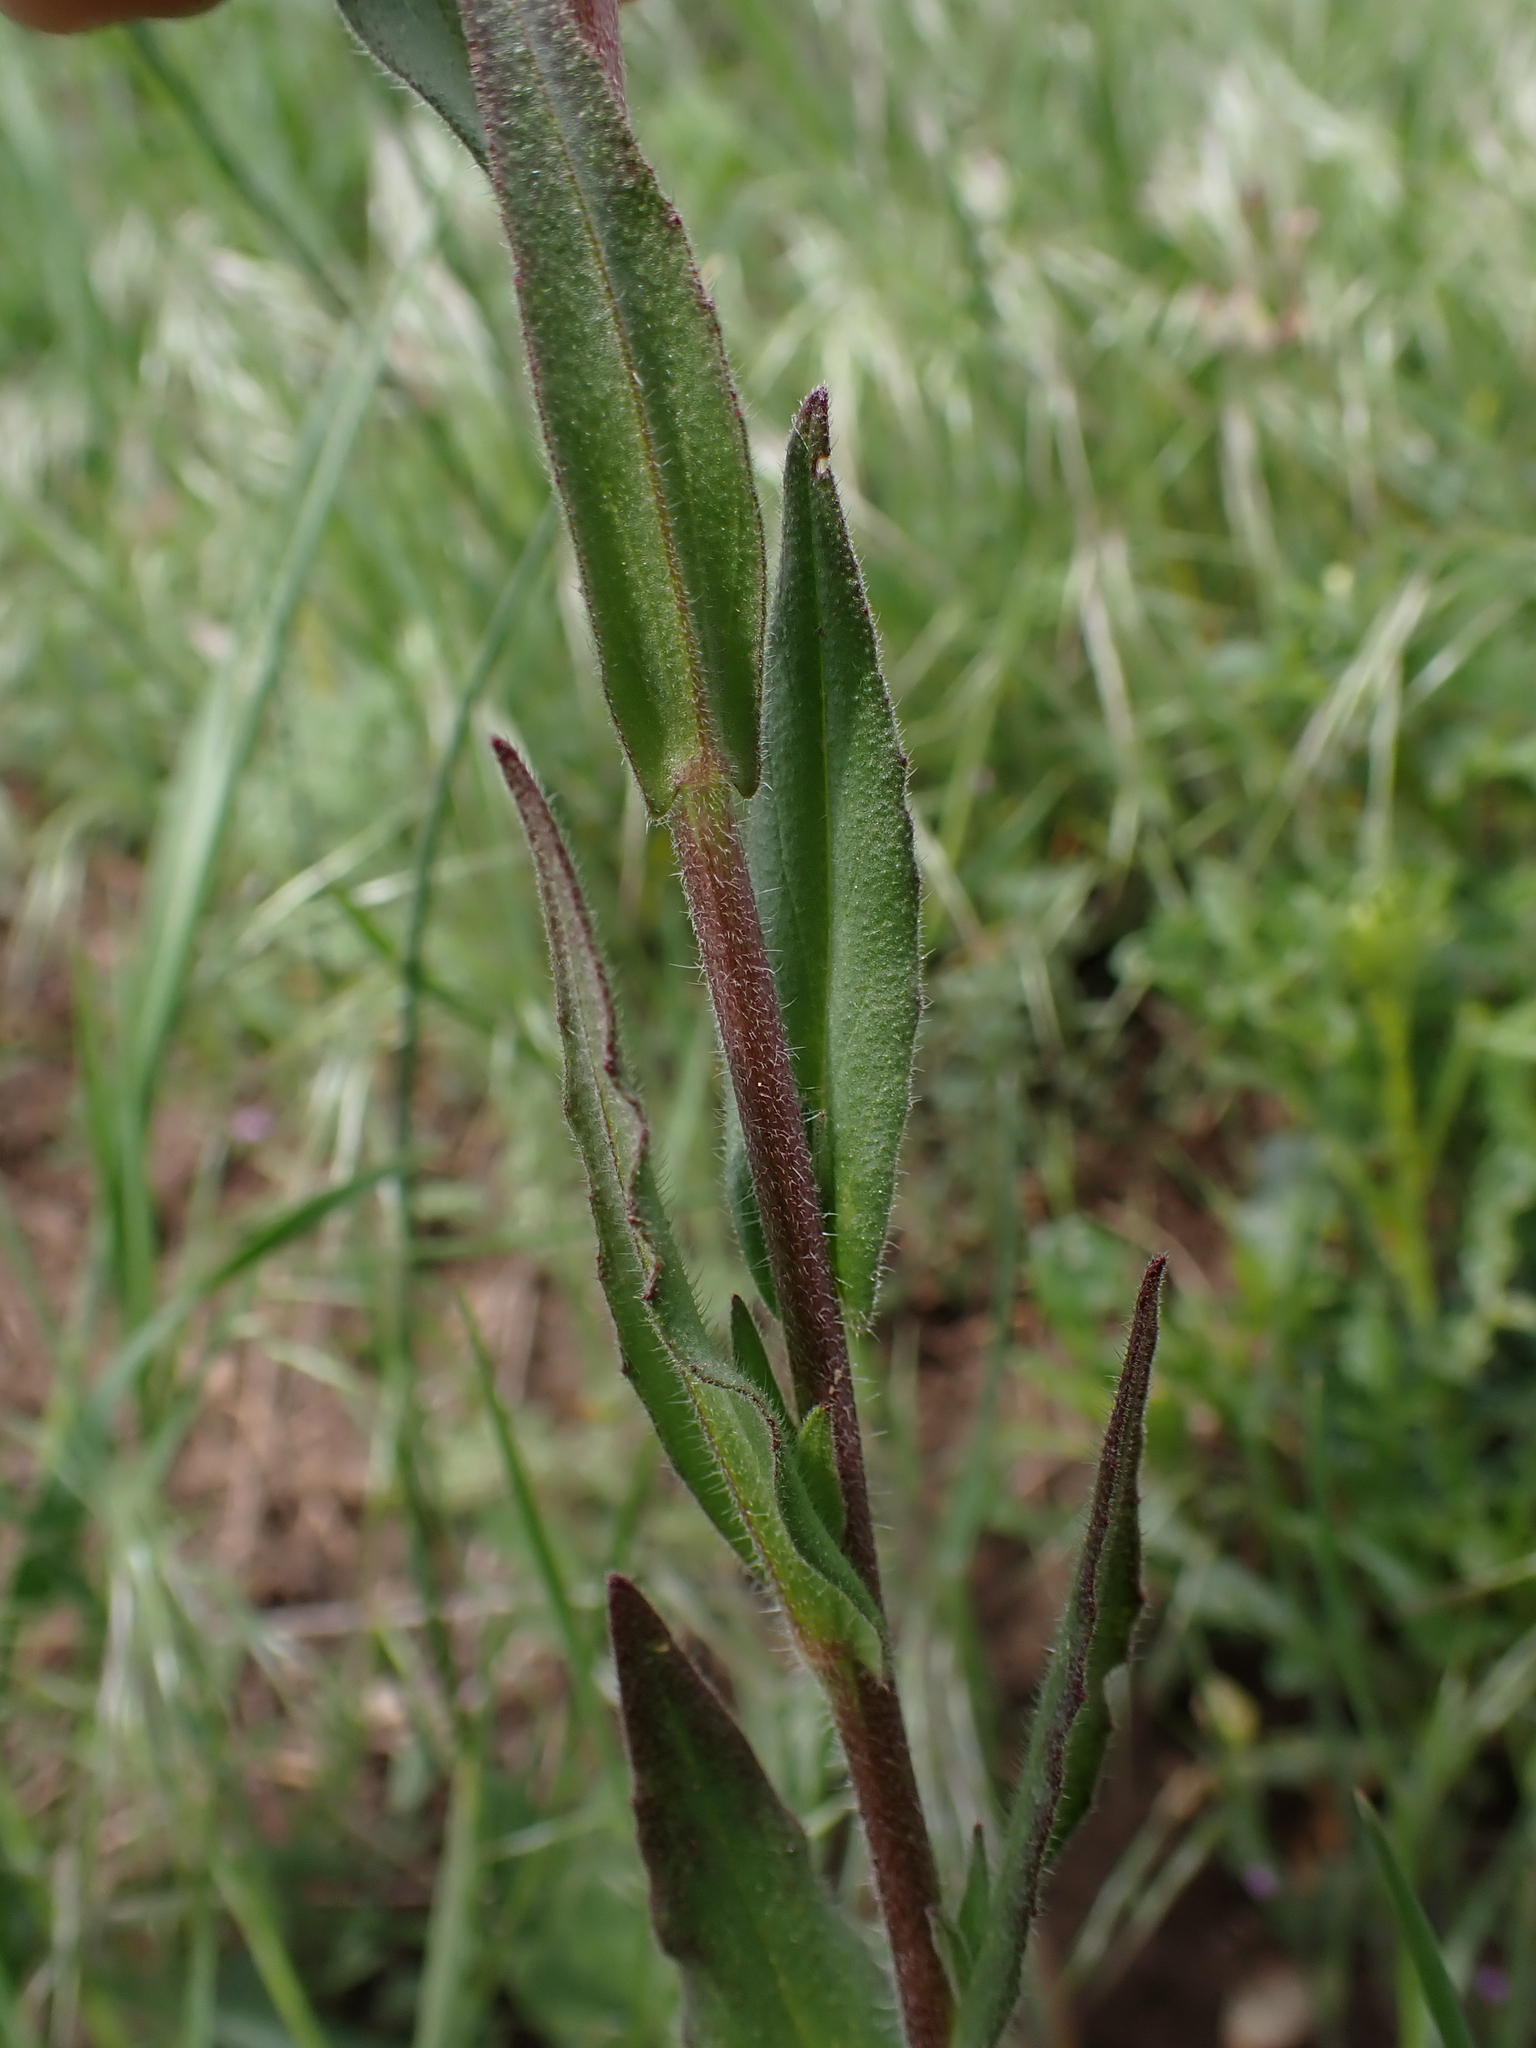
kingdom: Plantae
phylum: Tracheophyta
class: Magnoliopsida
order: Brassicales
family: Brassicaceae
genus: Camelina
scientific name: Camelina microcarpa
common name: Lesser gold-of-pleasure
